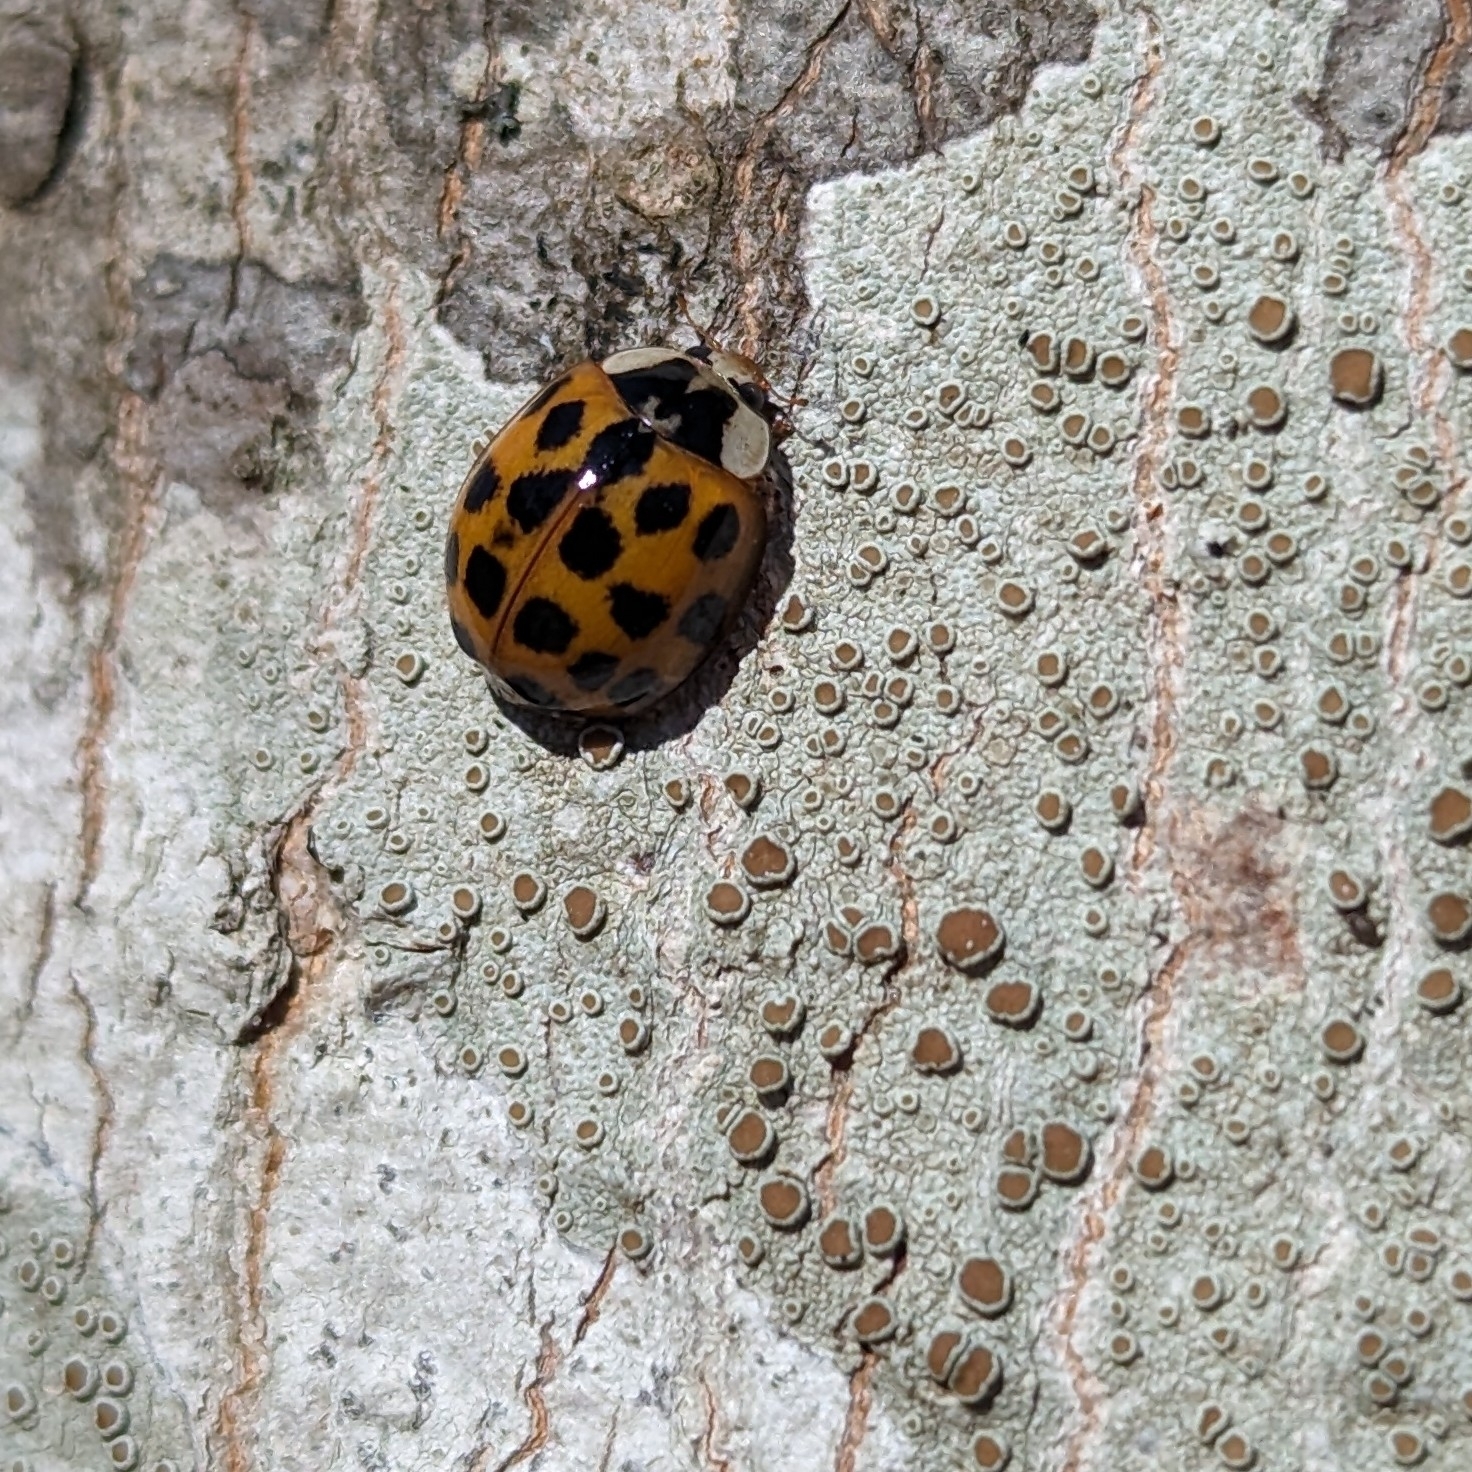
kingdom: Animalia
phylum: Arthropoda
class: Insecta
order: Coleoptera
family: Coccinellidae
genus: Harmonia
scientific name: Harmonia axyridis
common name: Harlequin ladybird
